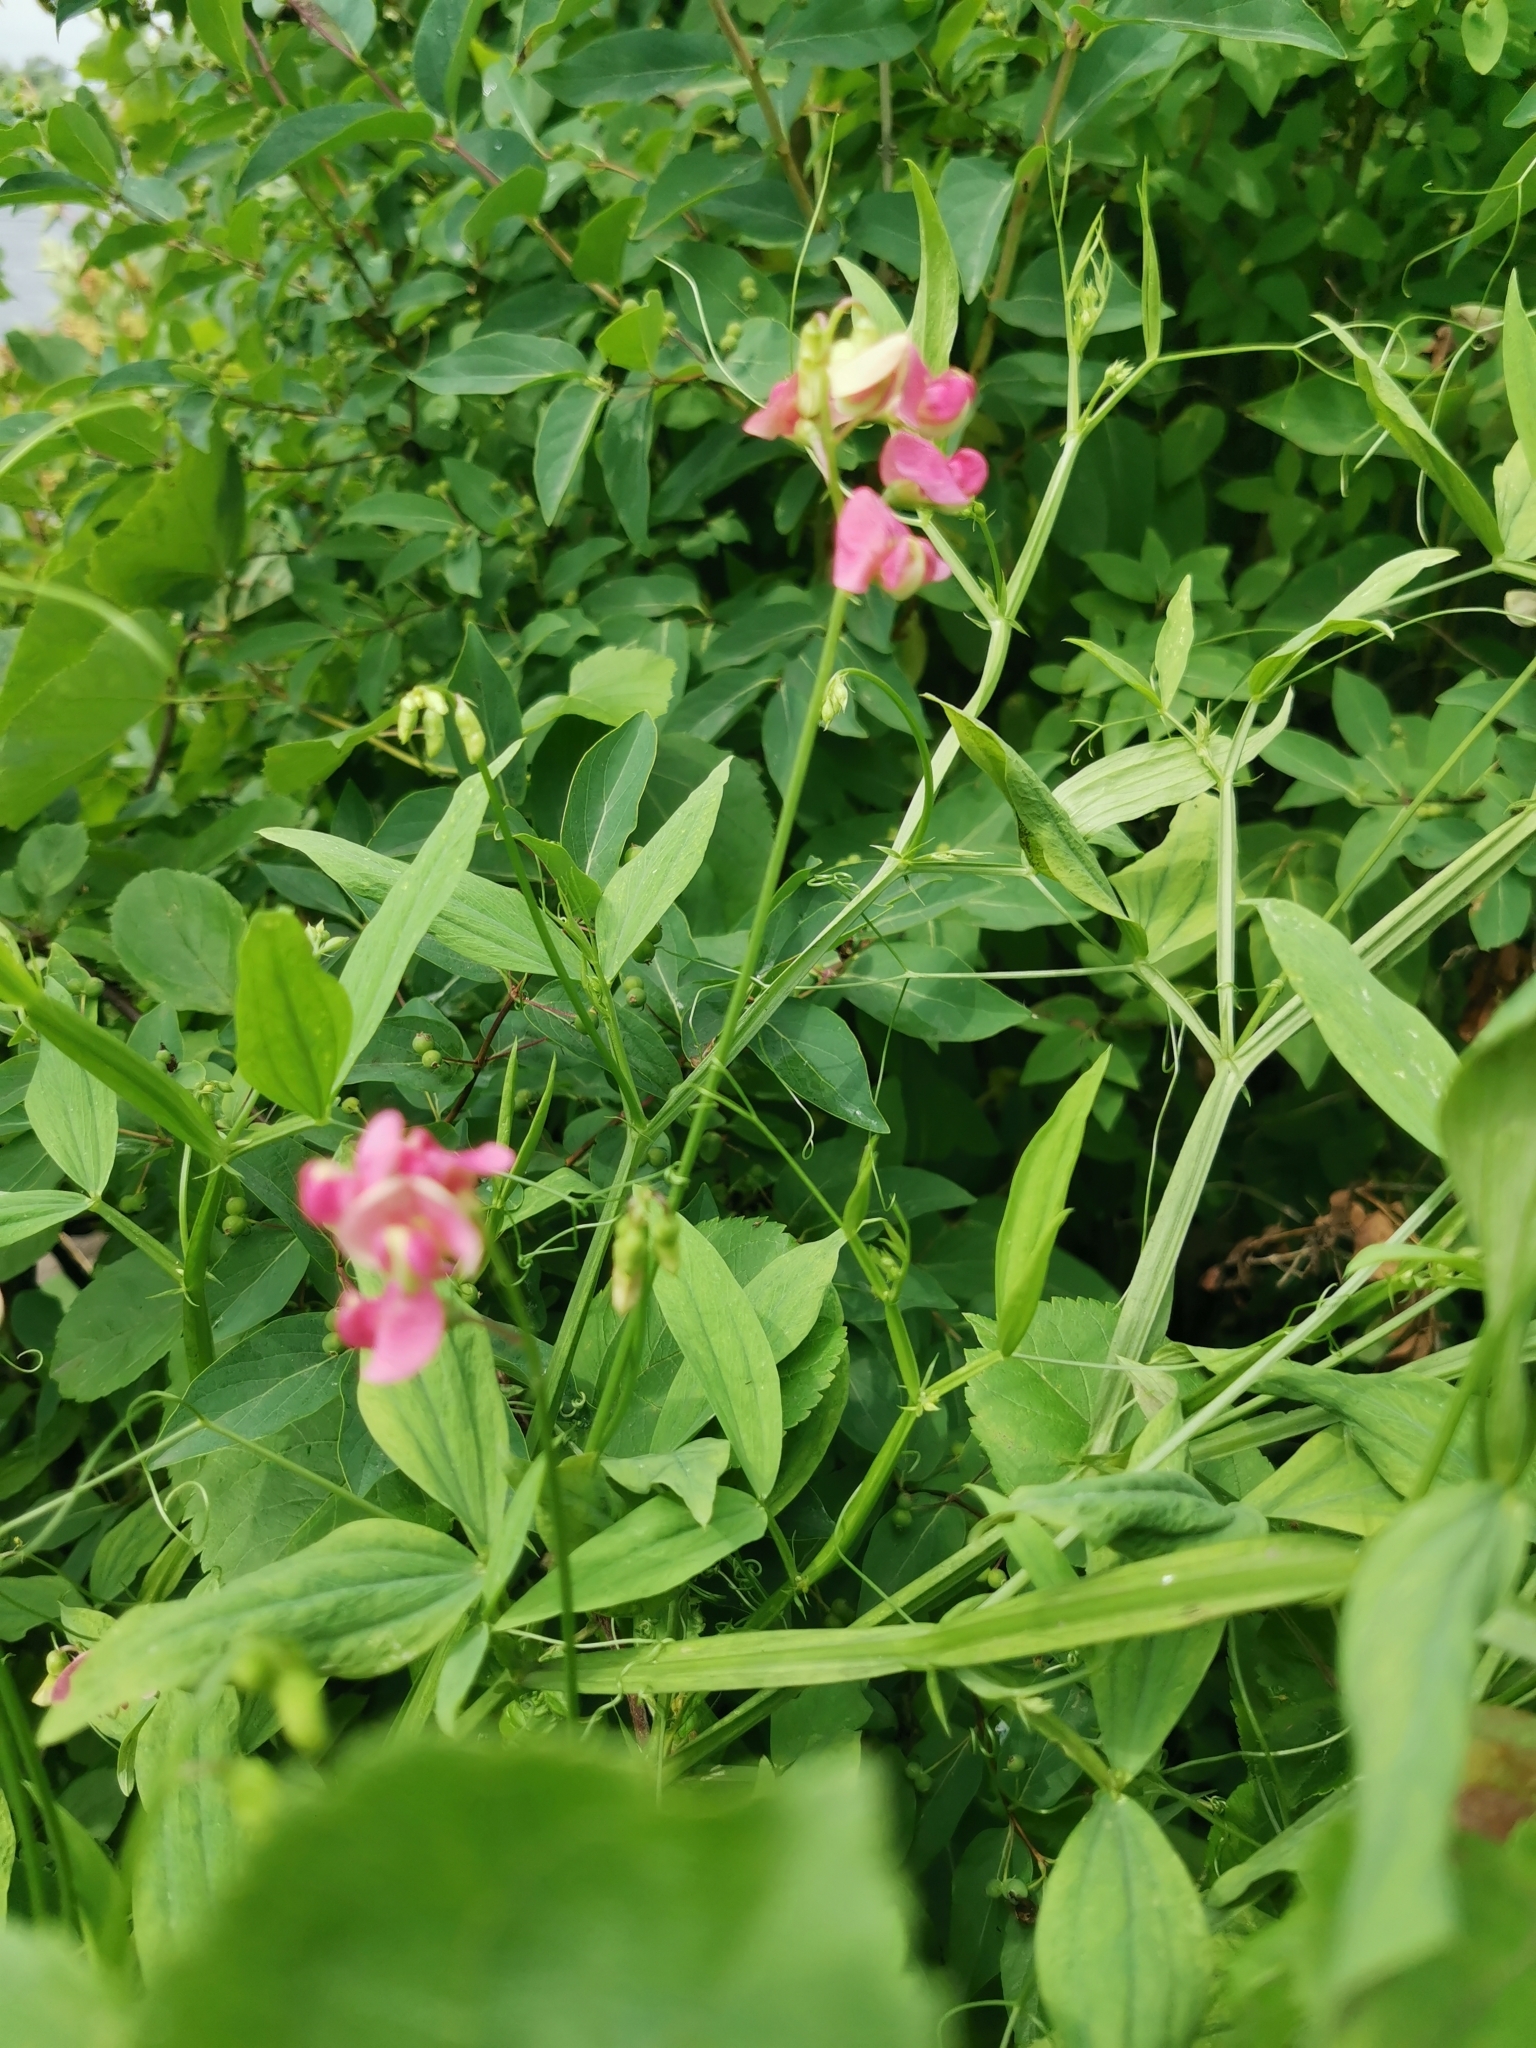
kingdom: Plantae
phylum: Tracheophyta
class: Magnoliopsida
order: Fabales
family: Fabaceae
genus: Lathyrus
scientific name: Lathyrus sylvestris
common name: Flat pea
